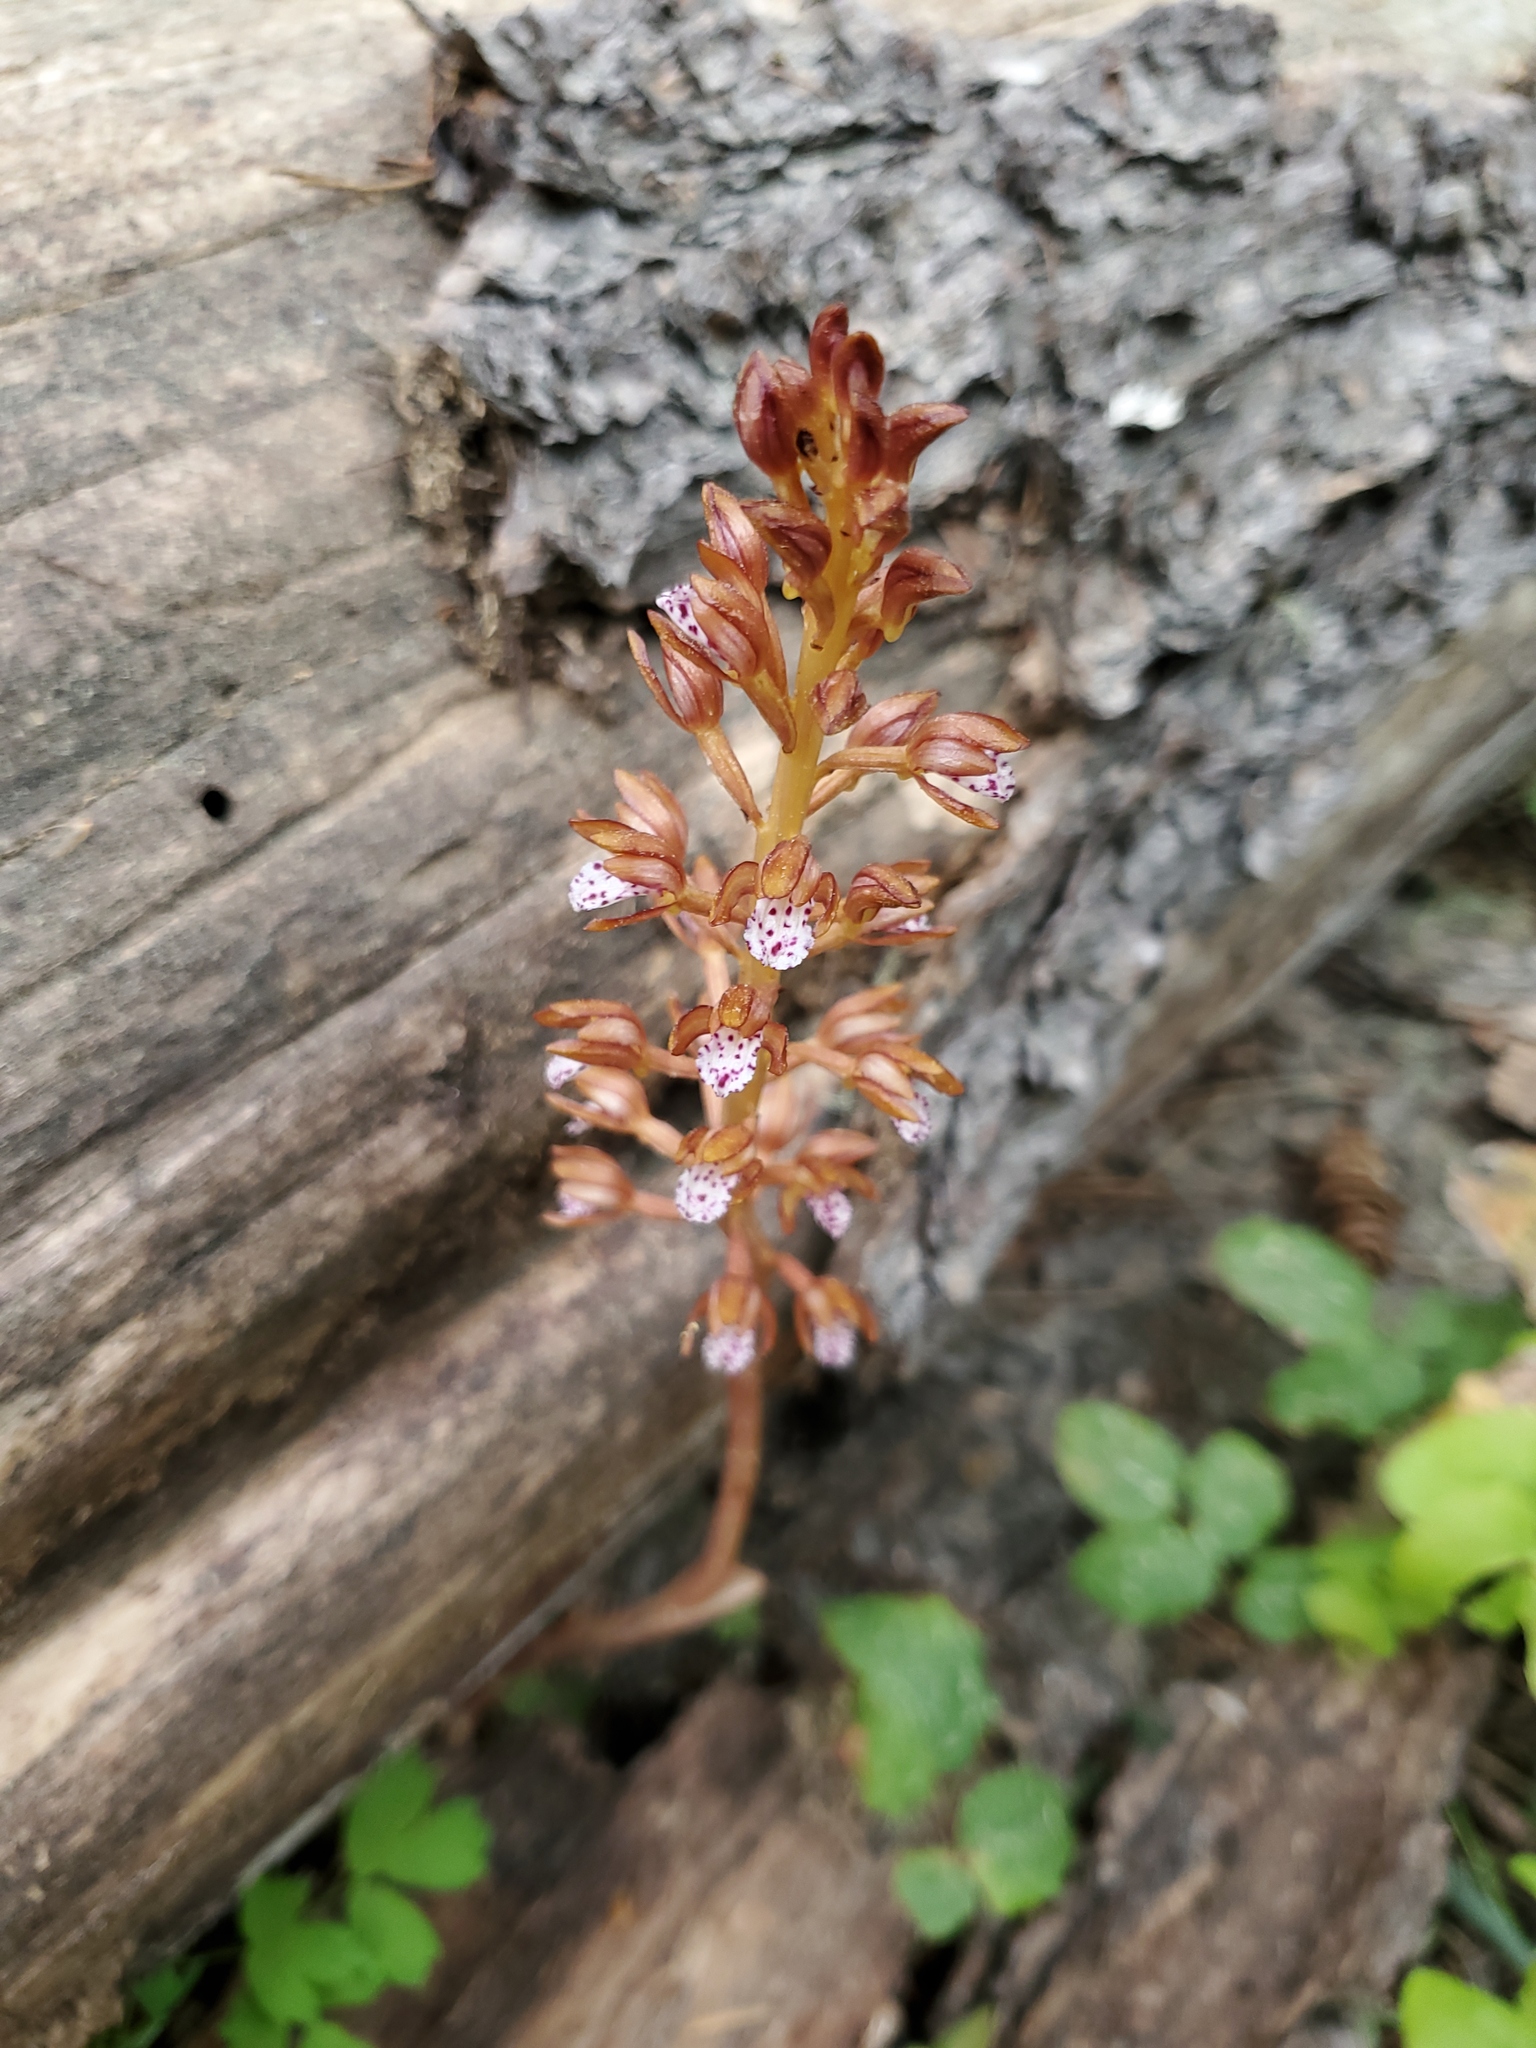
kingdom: Plantae
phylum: Tracheophyta
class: Liliopsida
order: Asparagales
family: Orchidaceae
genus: Corallorhiza
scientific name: Corallorhiza maculata
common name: Spotted coralroot
